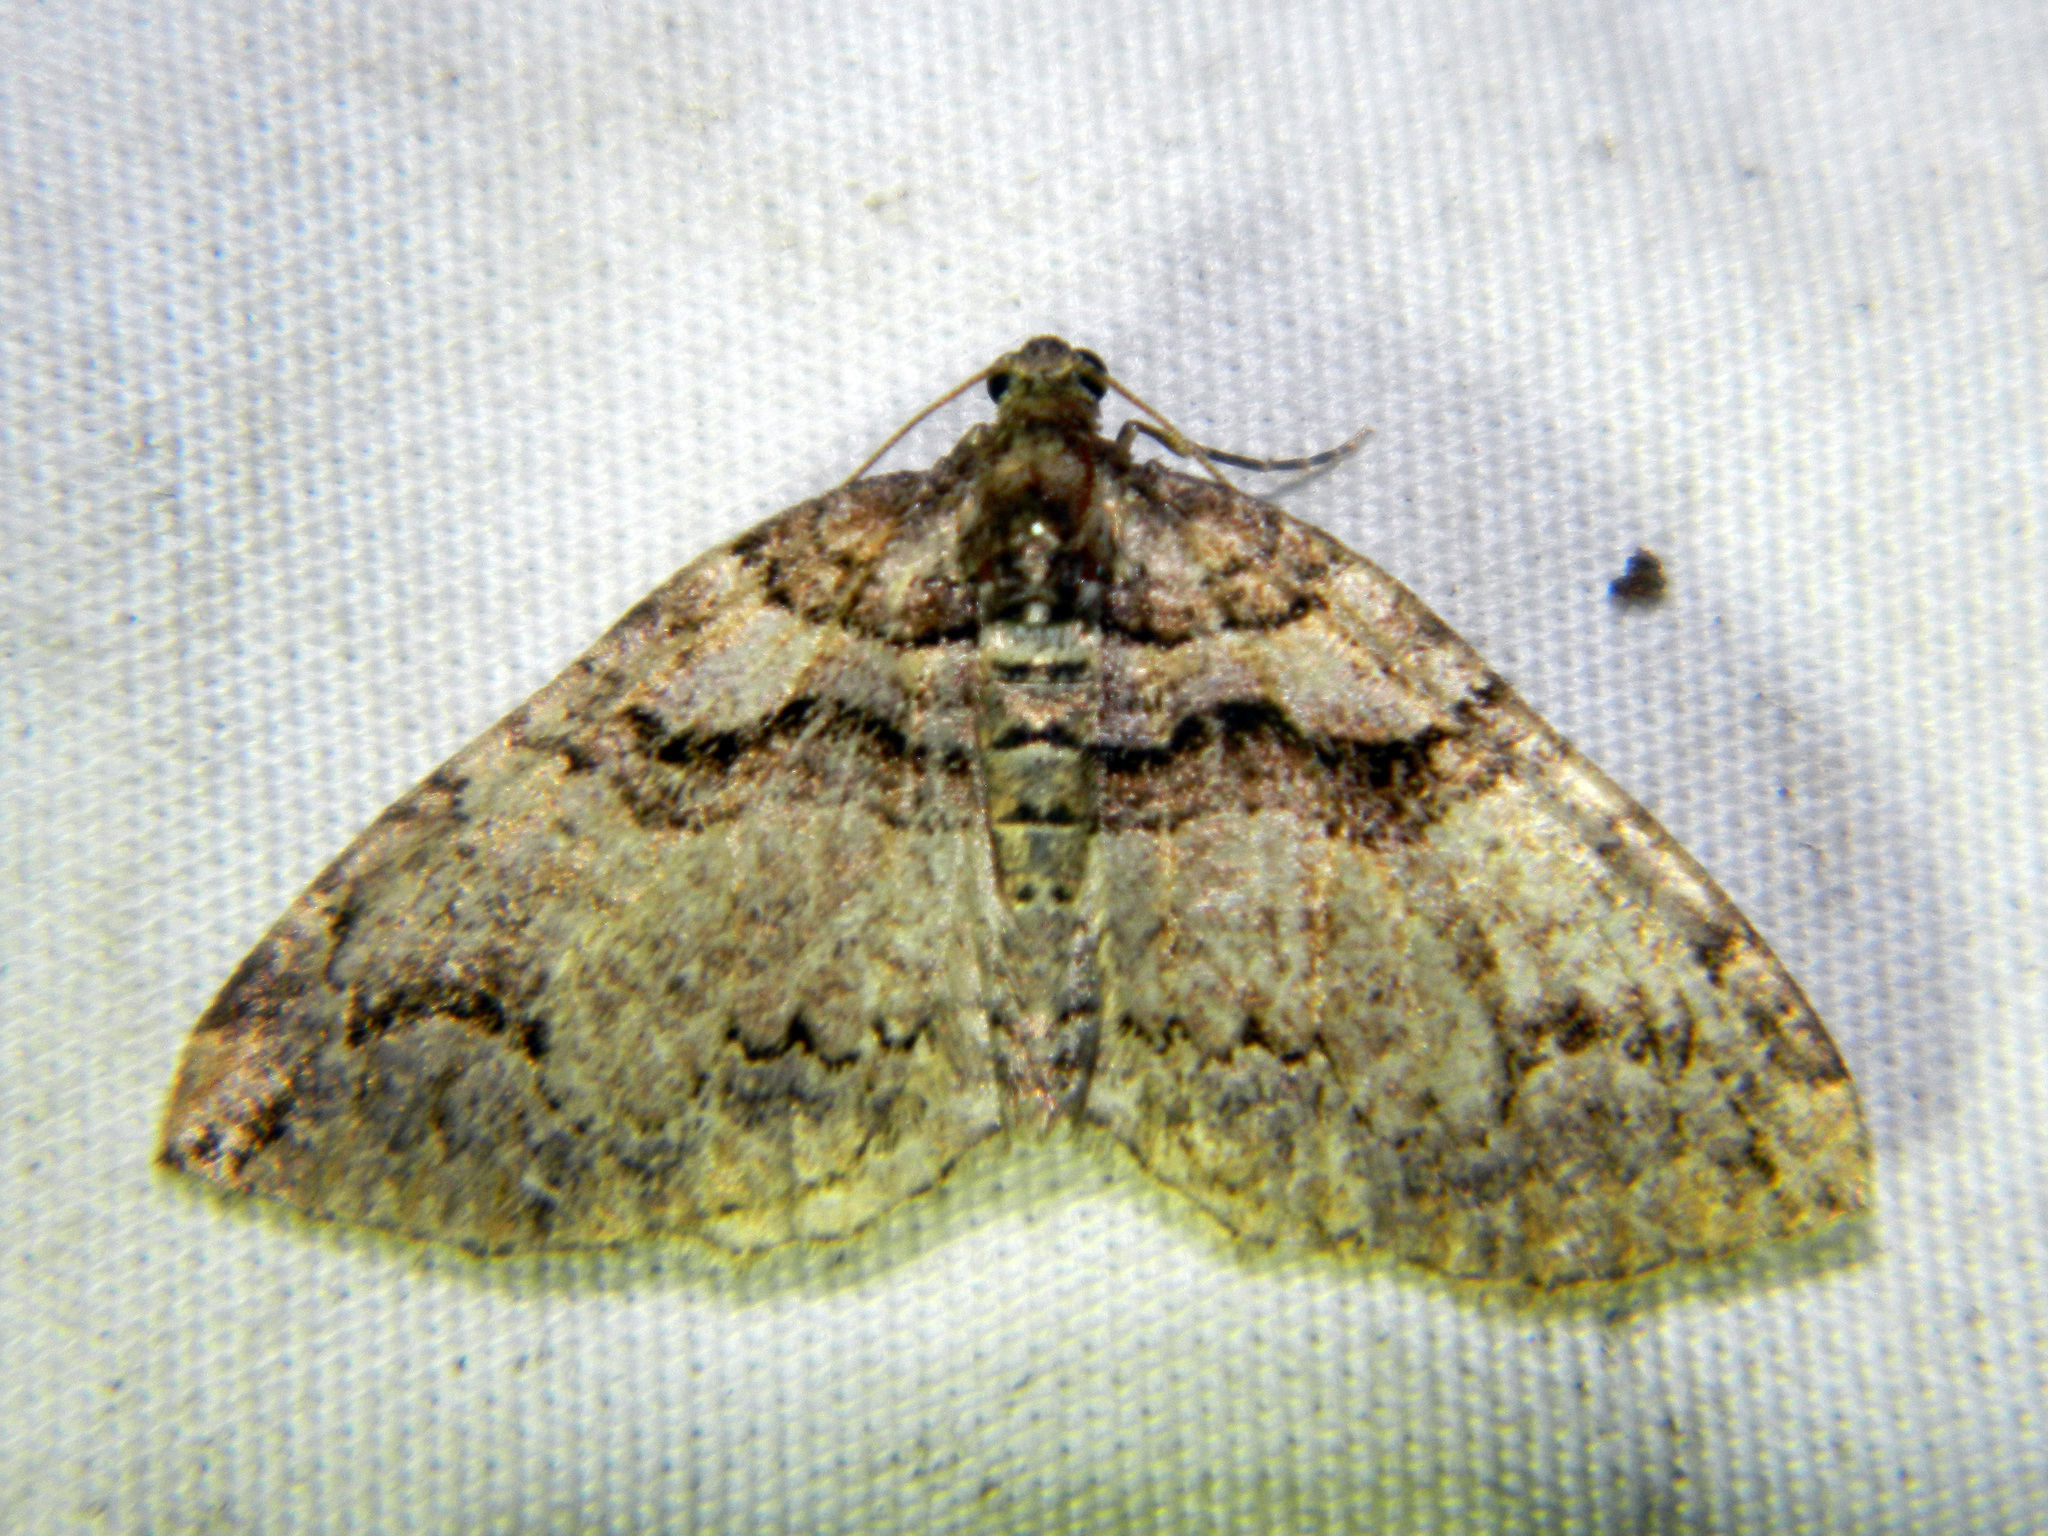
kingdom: Animalia
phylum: Arthropoda
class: Insecta
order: Lepidoptera
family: Geometridae
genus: Anticlea
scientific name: Anticlea vasiliata
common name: Variable carpet
